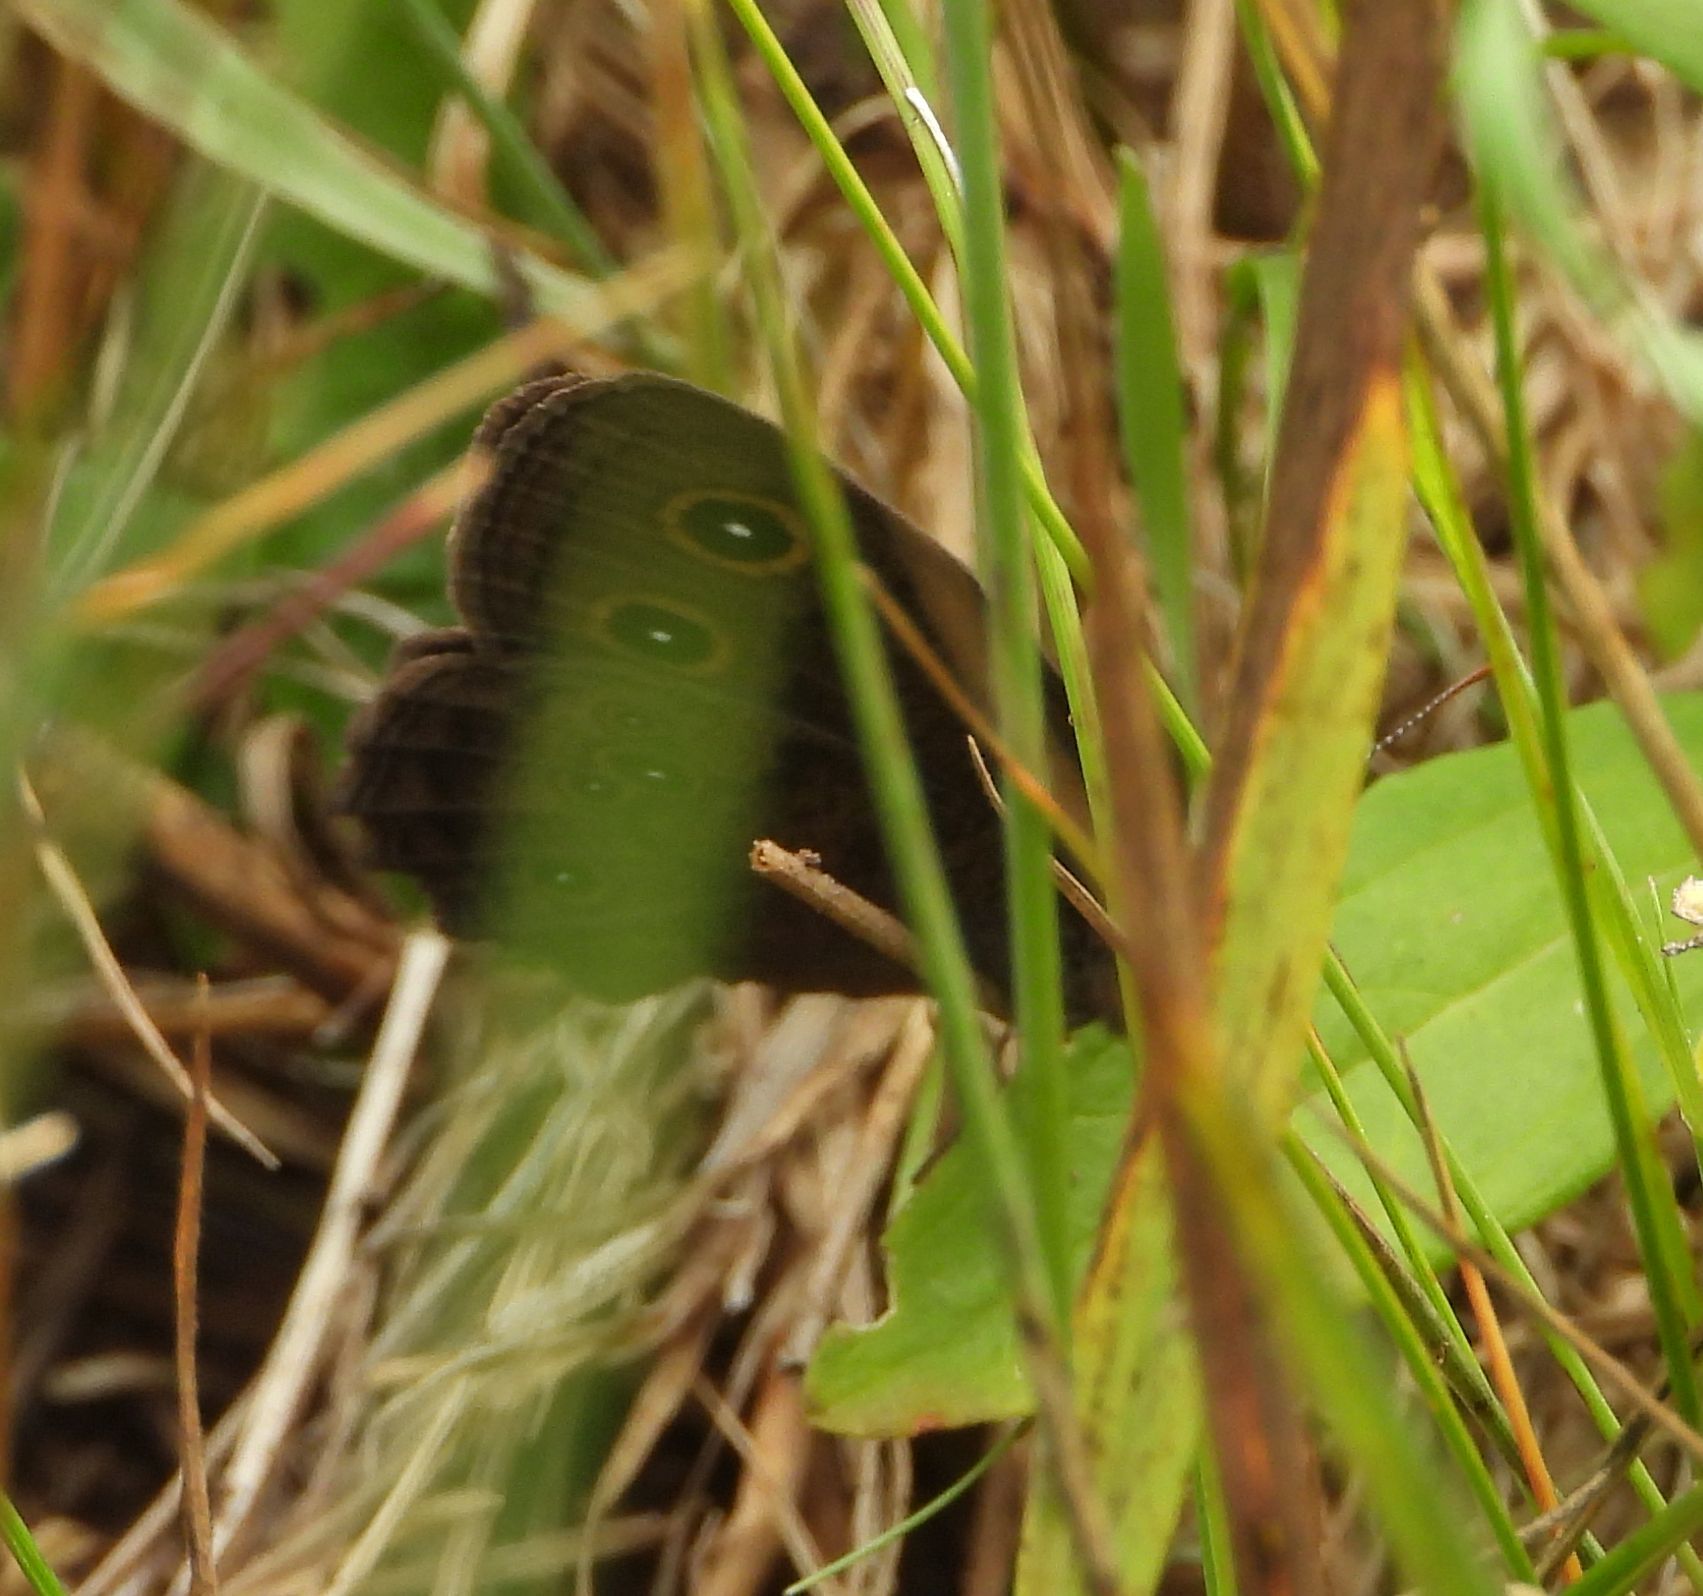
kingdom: Animalia
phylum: Arthropoda
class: Insecta
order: Lepidoptera
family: Nymphalidae
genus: Cercyonis
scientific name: Cercyonis pegala
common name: Common wood-nymph
